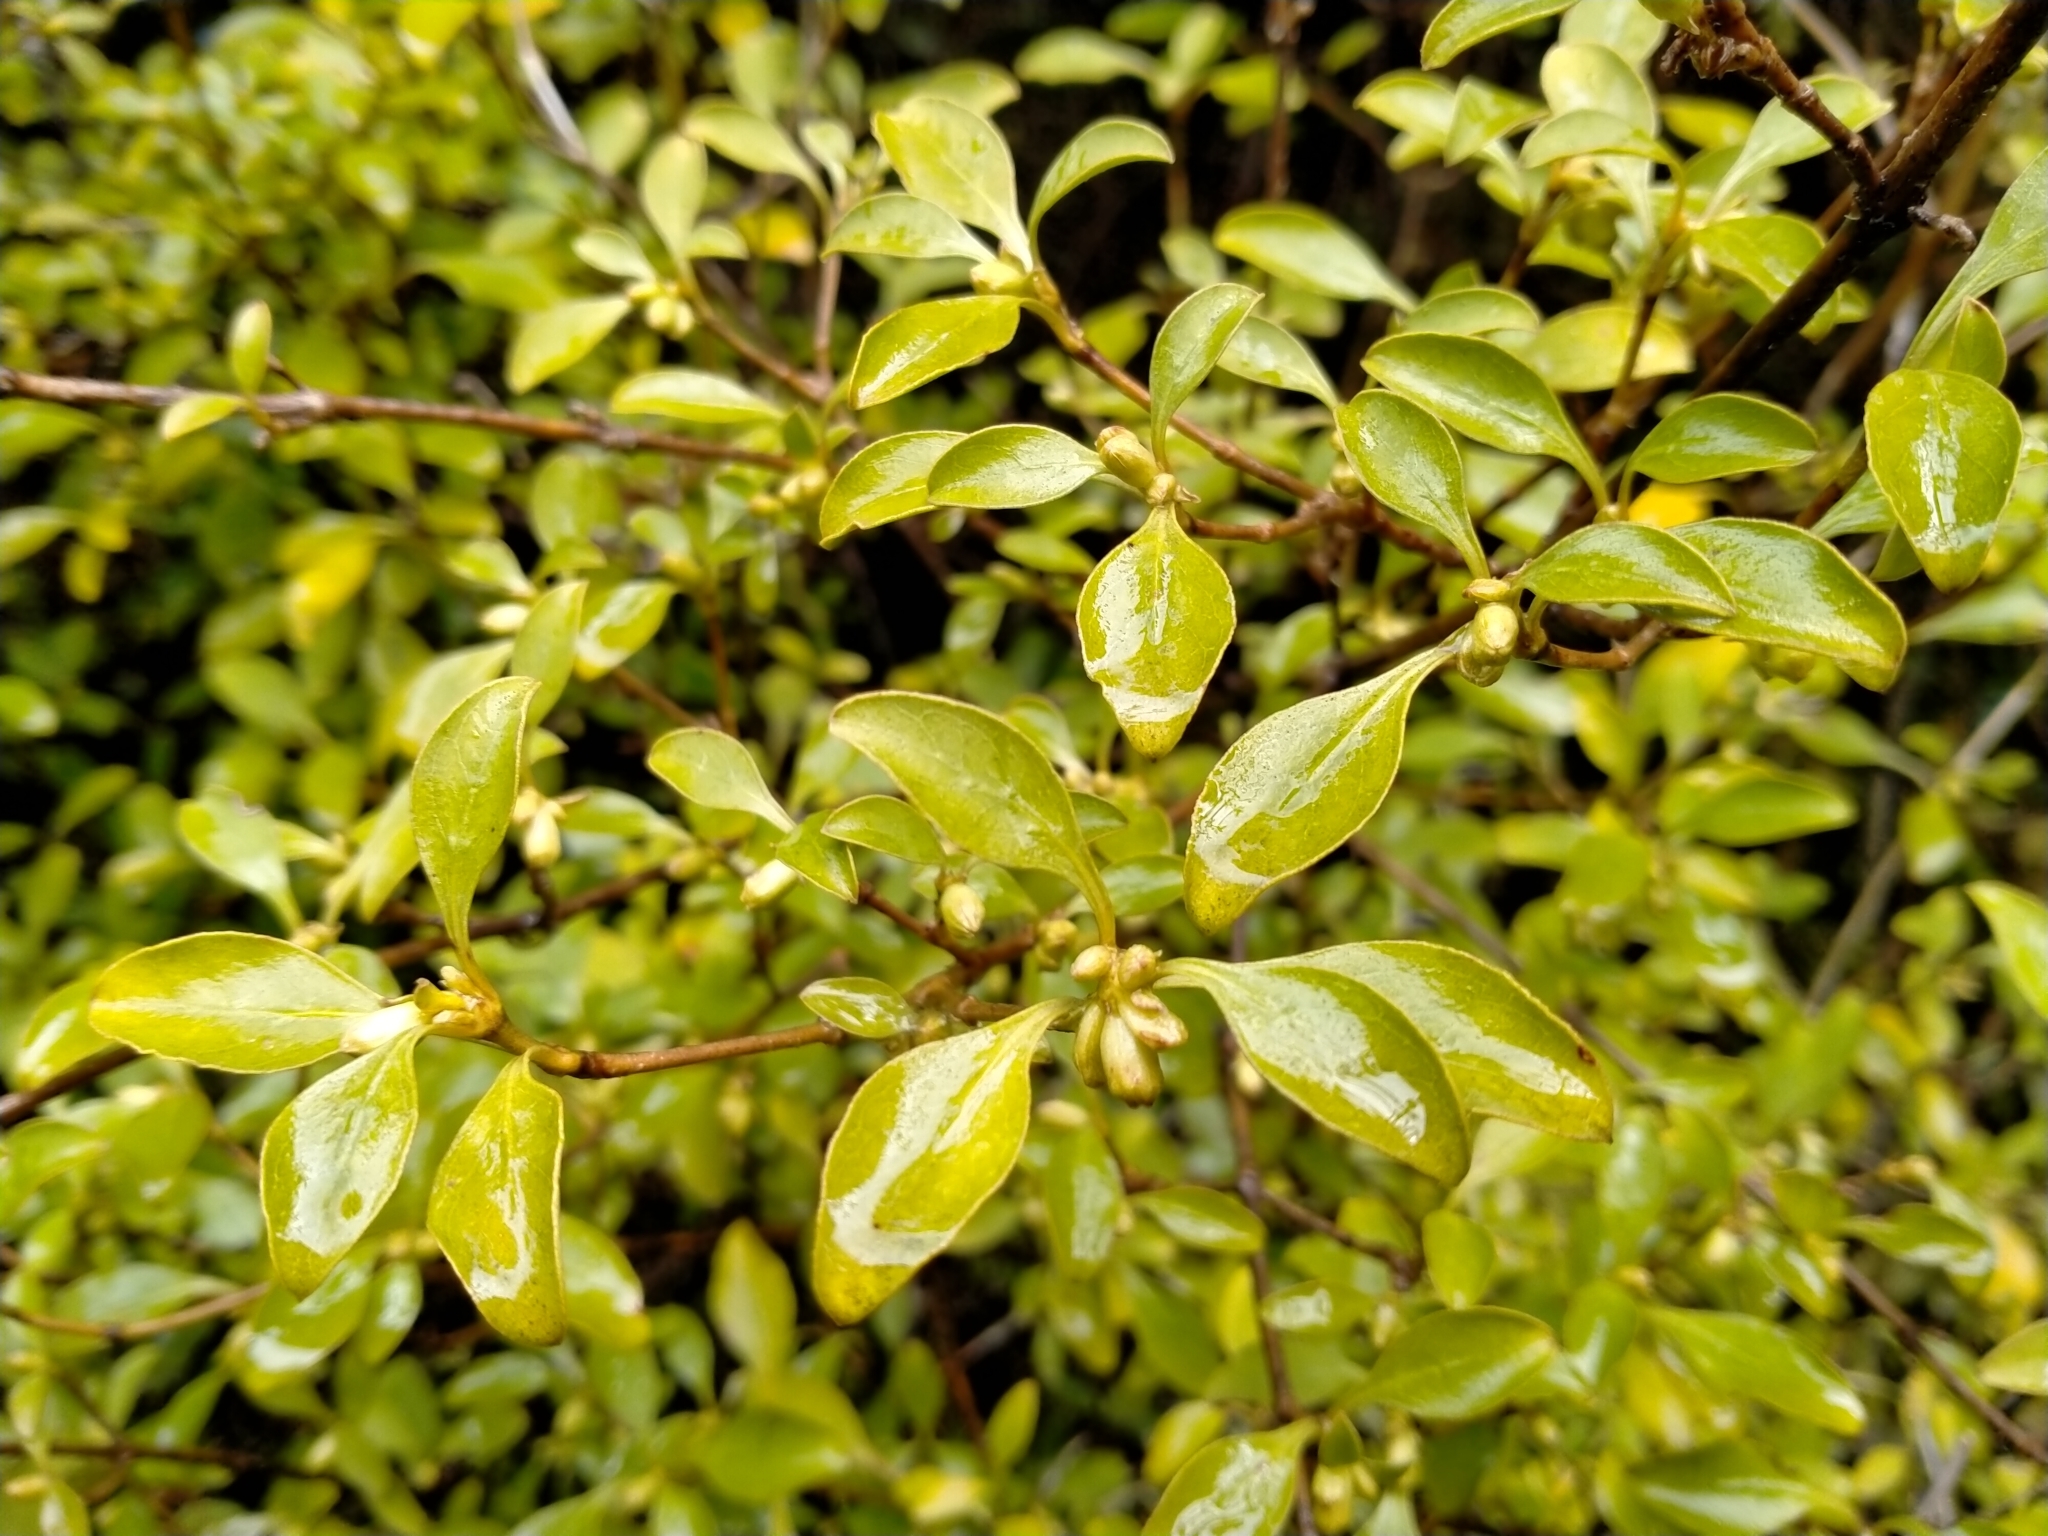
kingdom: Plantae
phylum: Tracheophyta
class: Magnoliopsida
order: Gentianales
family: Rubiaceae
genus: Coprosma
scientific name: Coprosma foetidissima
